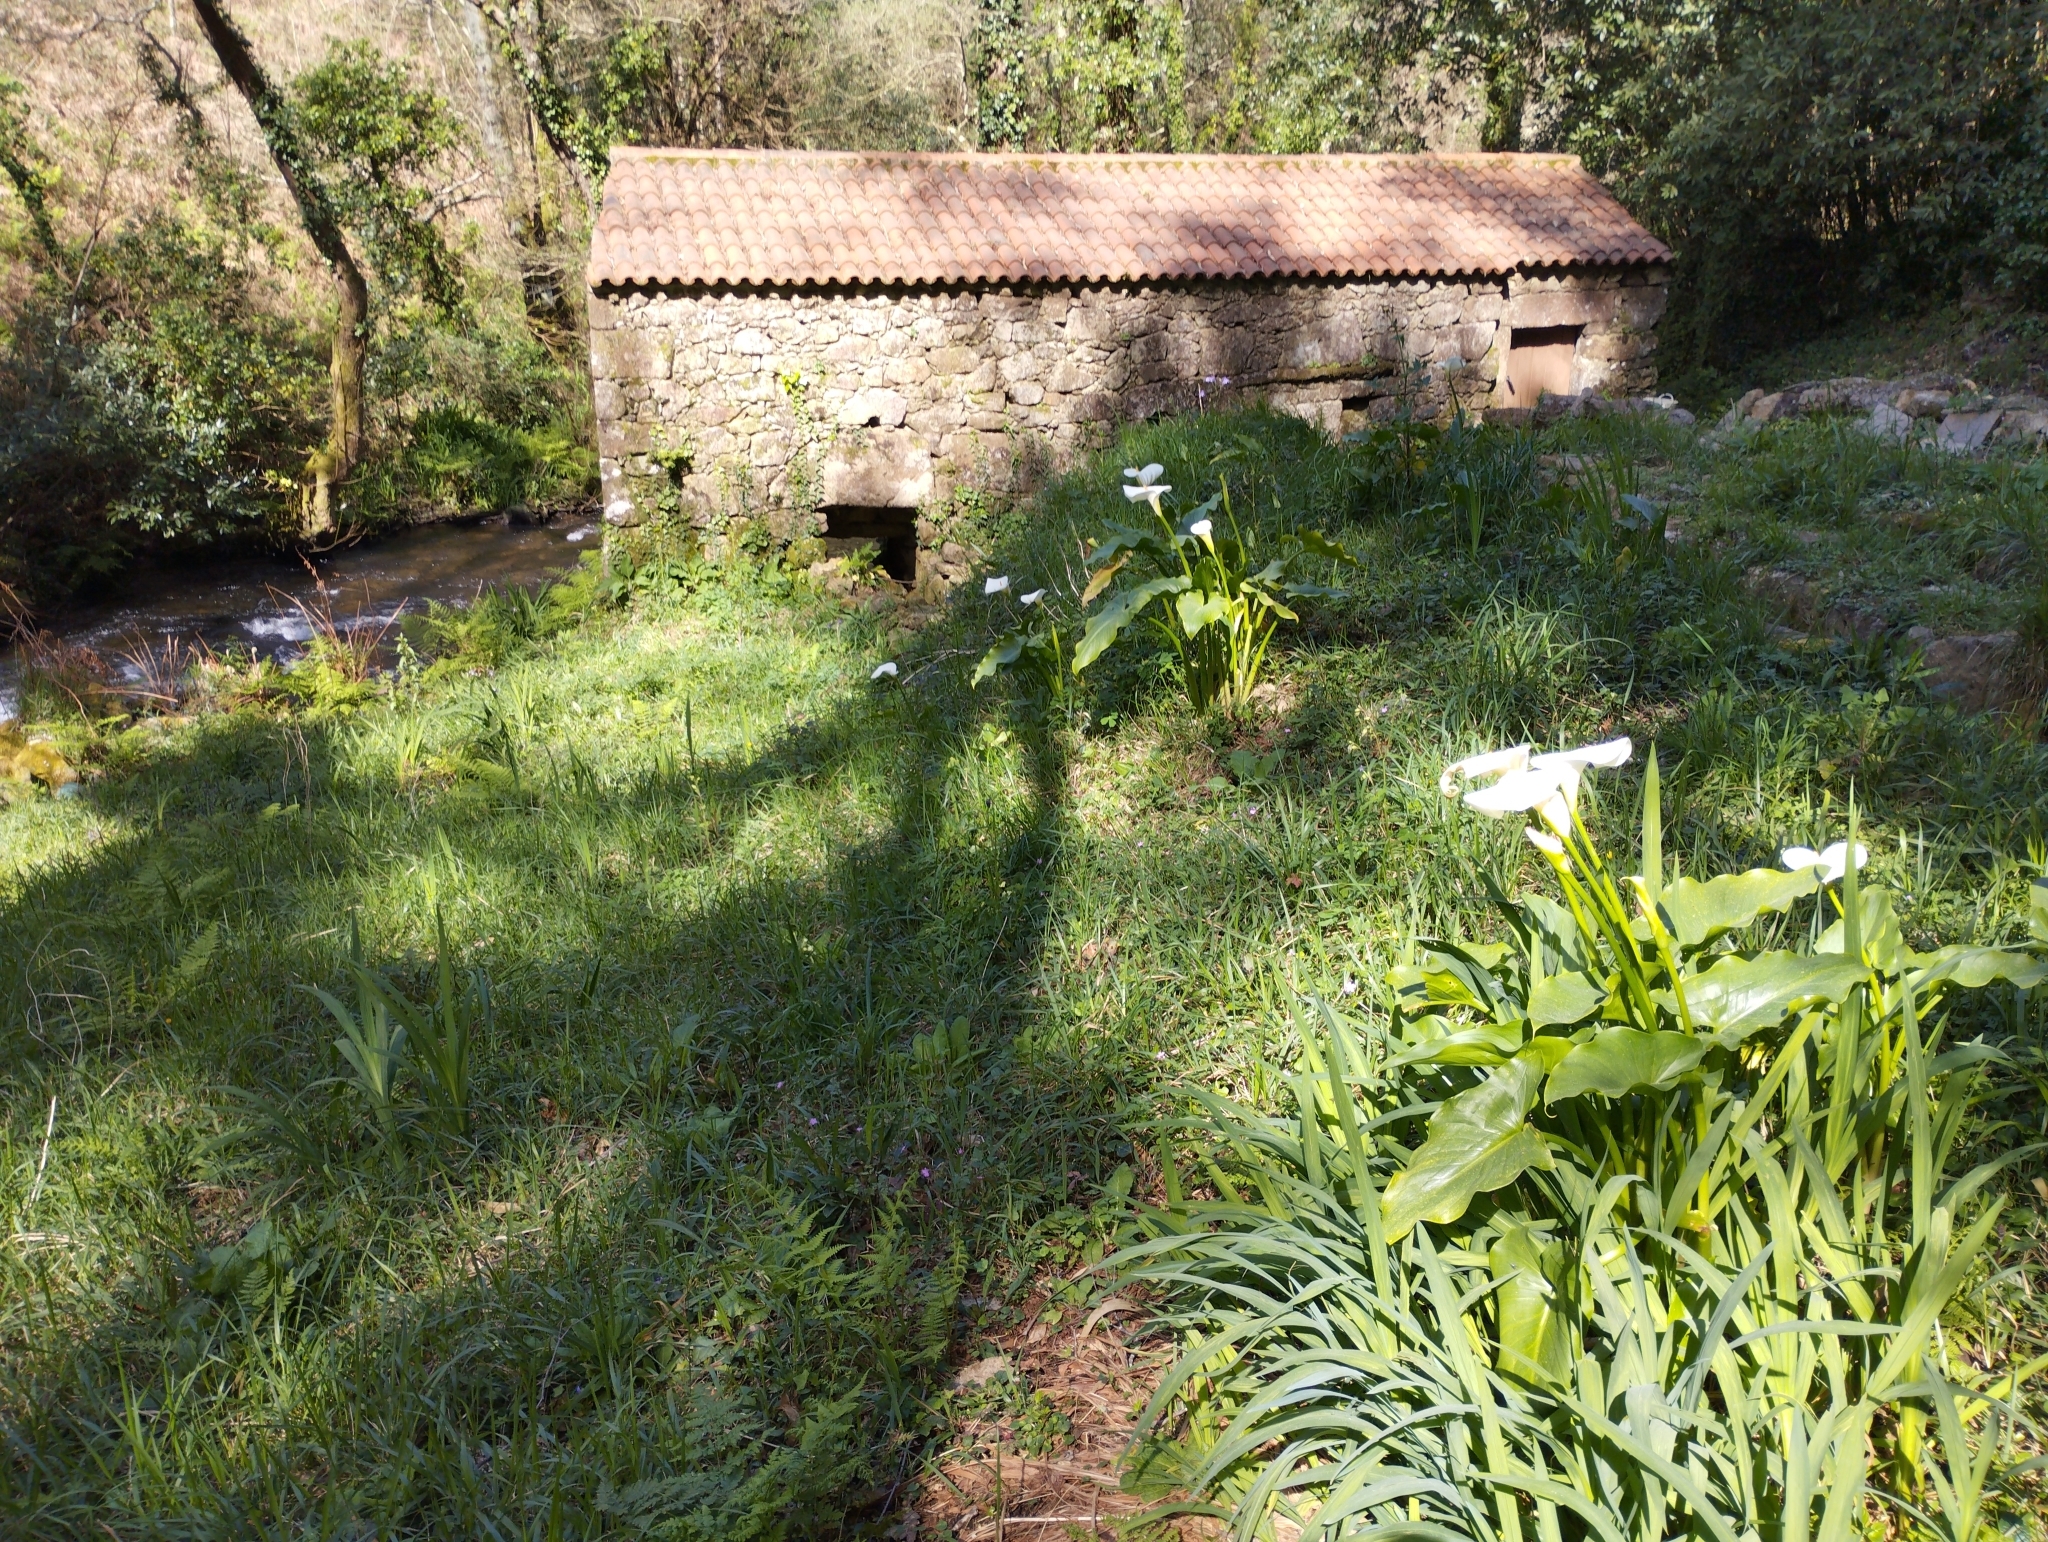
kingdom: Plantae
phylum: Tracheophyta
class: Liliopsida
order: Alismatales
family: Araceae
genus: Zantedeschia
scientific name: Zantedeschia aethiopica
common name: Altar-lily
